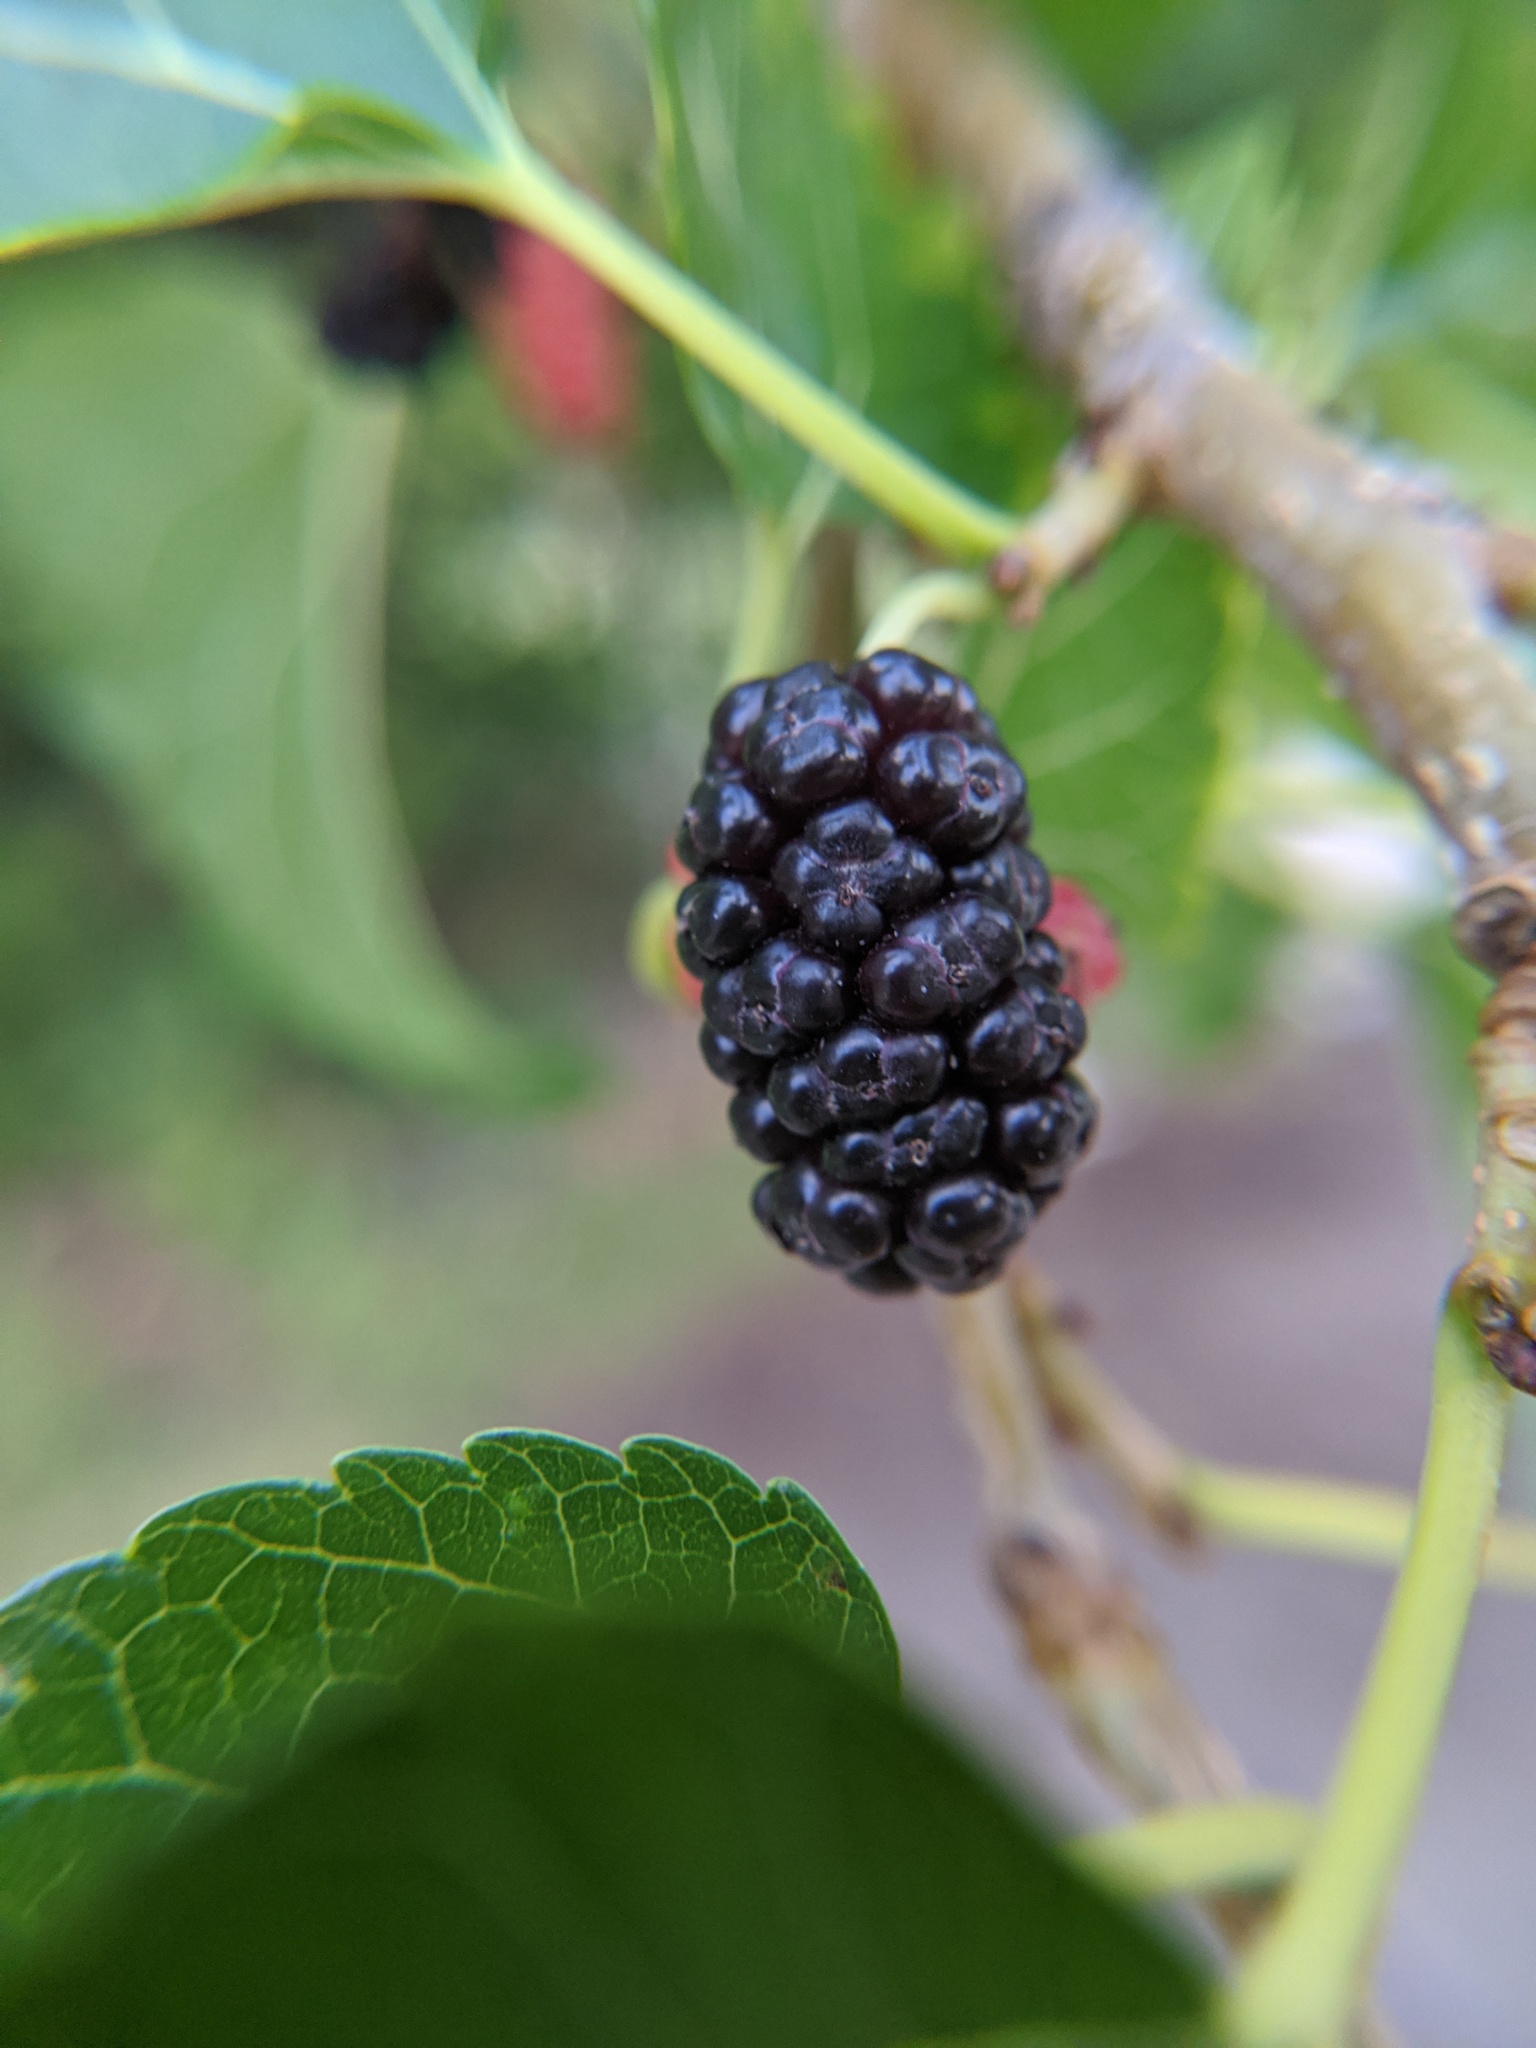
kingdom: Plantae
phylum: Tracheophyta
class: Magnoliopsida
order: Rosales
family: Moraceae
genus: Morus
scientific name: Morus alba
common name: White mulberry
